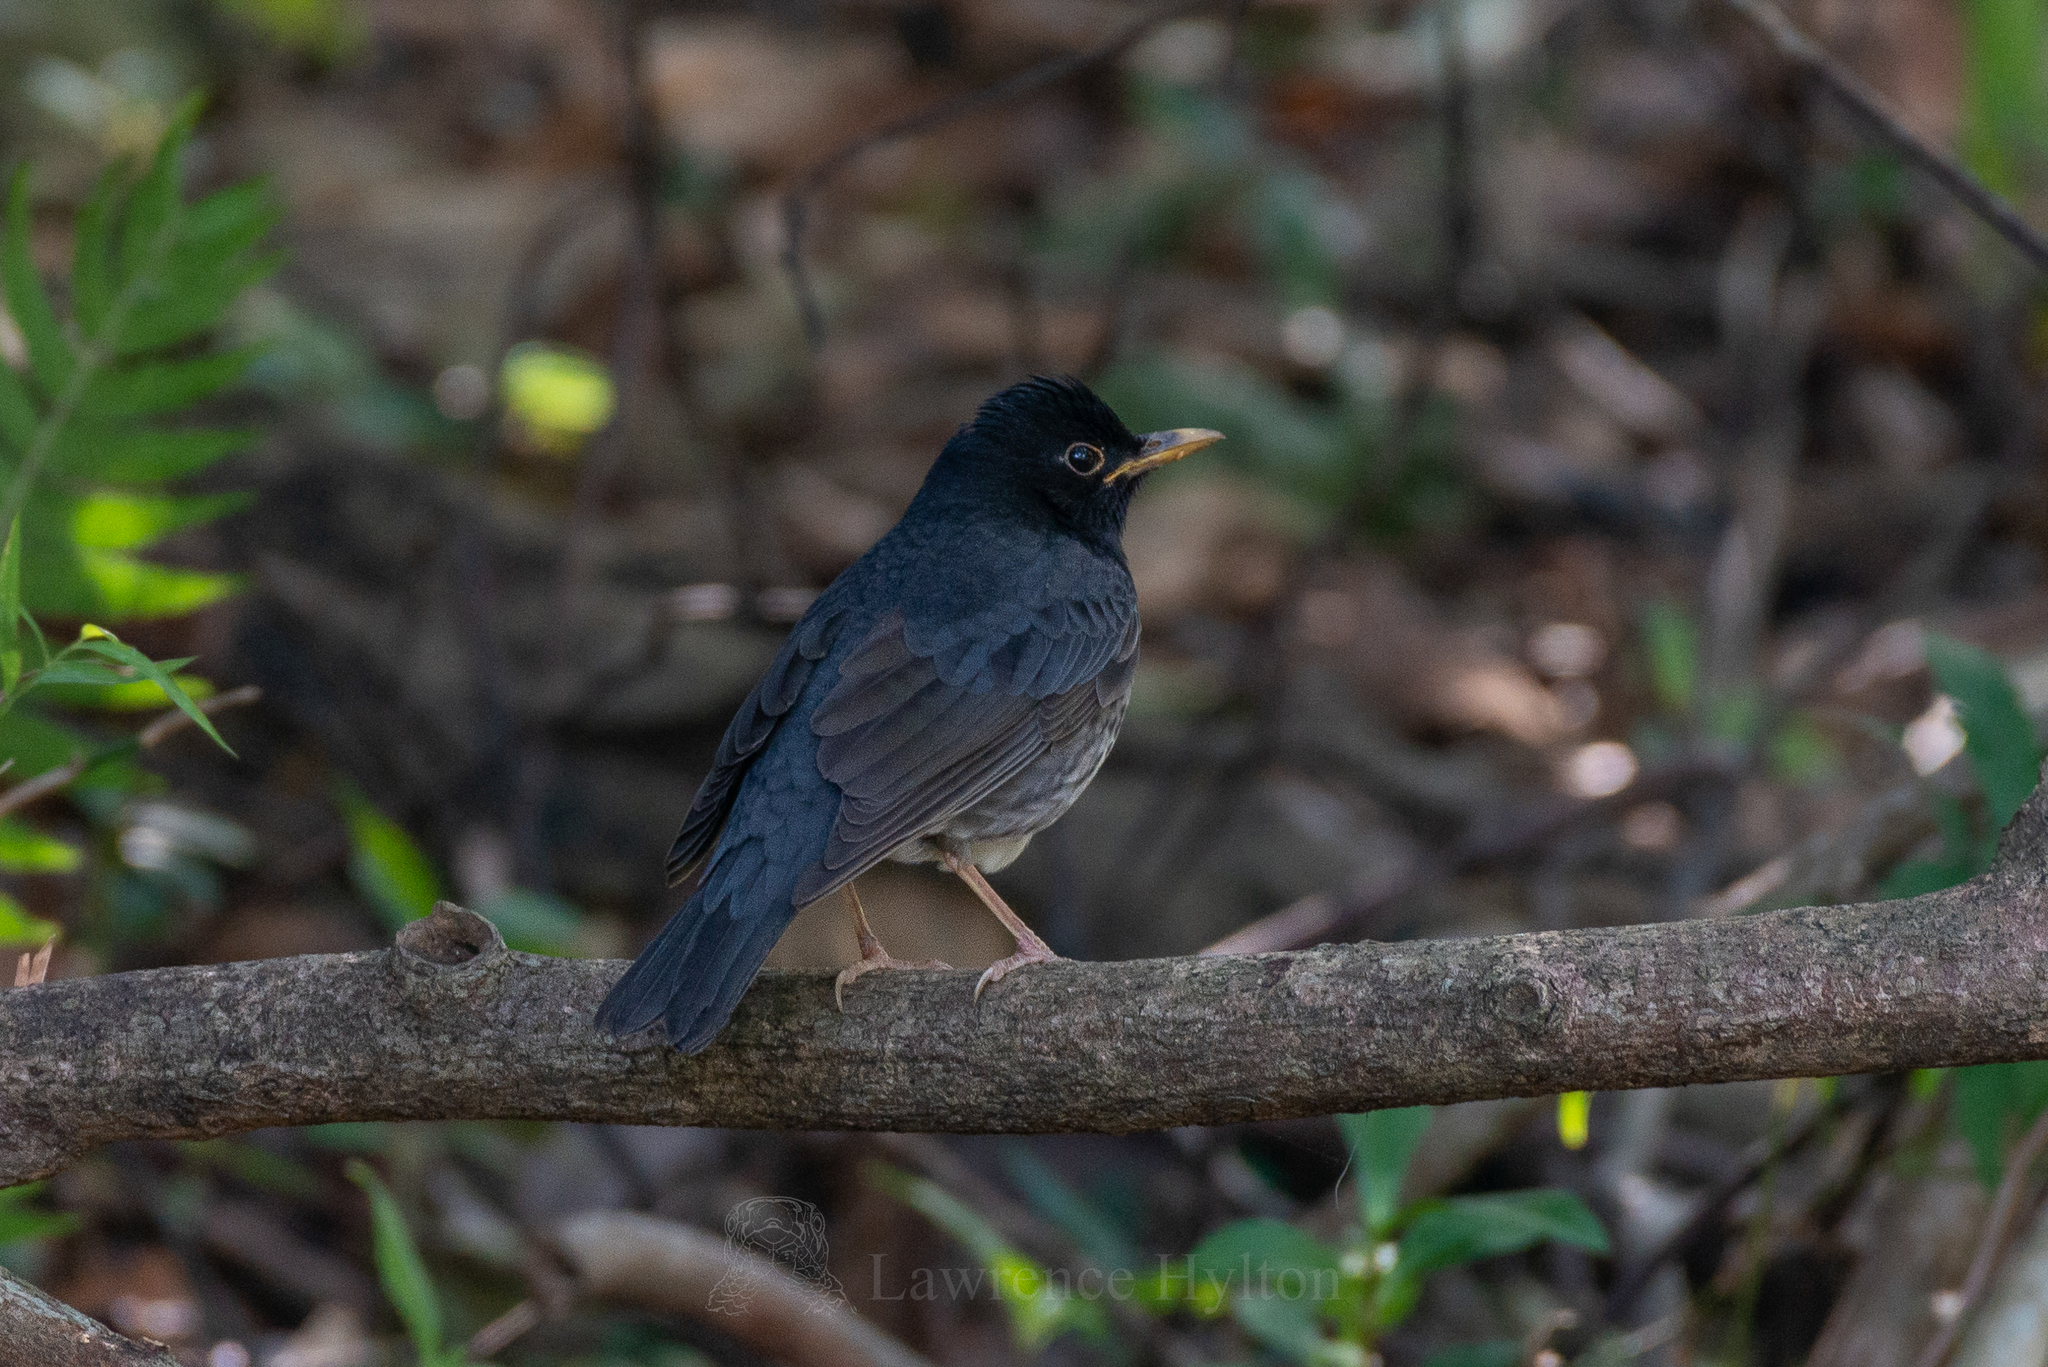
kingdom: Animalia
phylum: Chordata
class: Aves
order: Passeriformes
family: Turdidae
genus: Turdus
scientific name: Turdus cardis
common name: Japanese thrush
